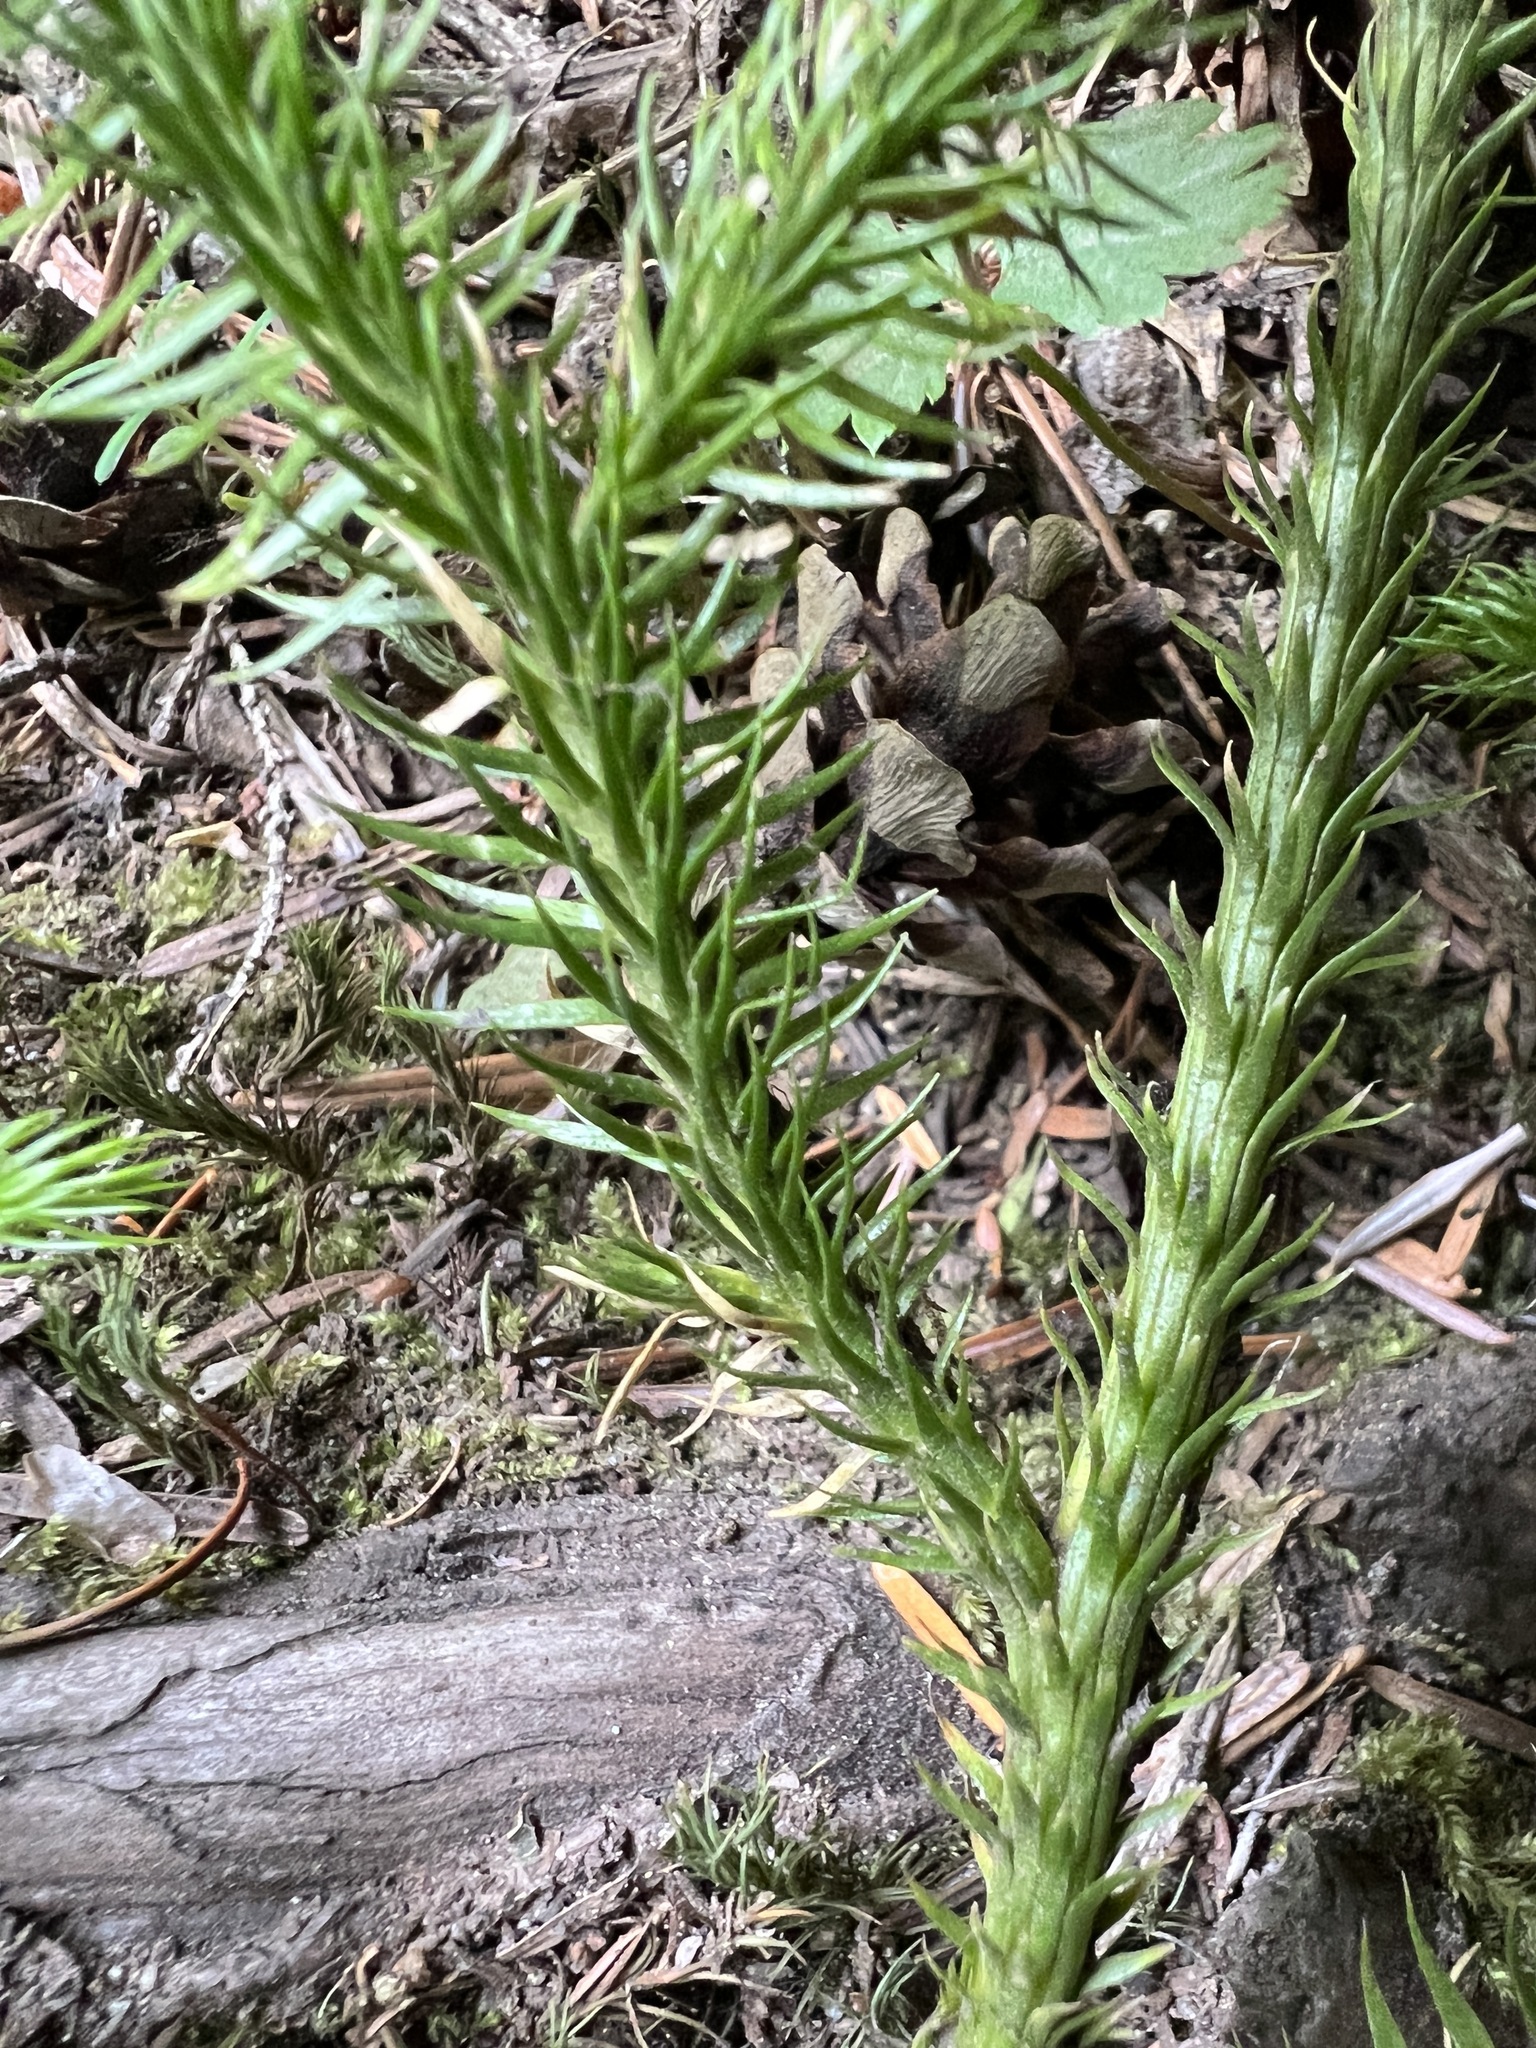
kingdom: Plantae
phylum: Tracheophyta
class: Lycopodiopsida
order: Lycopodiales
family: Lycopodiaceae
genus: Lycopodium
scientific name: Lycopodium clavatum
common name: Stag's-horn clubmoss
